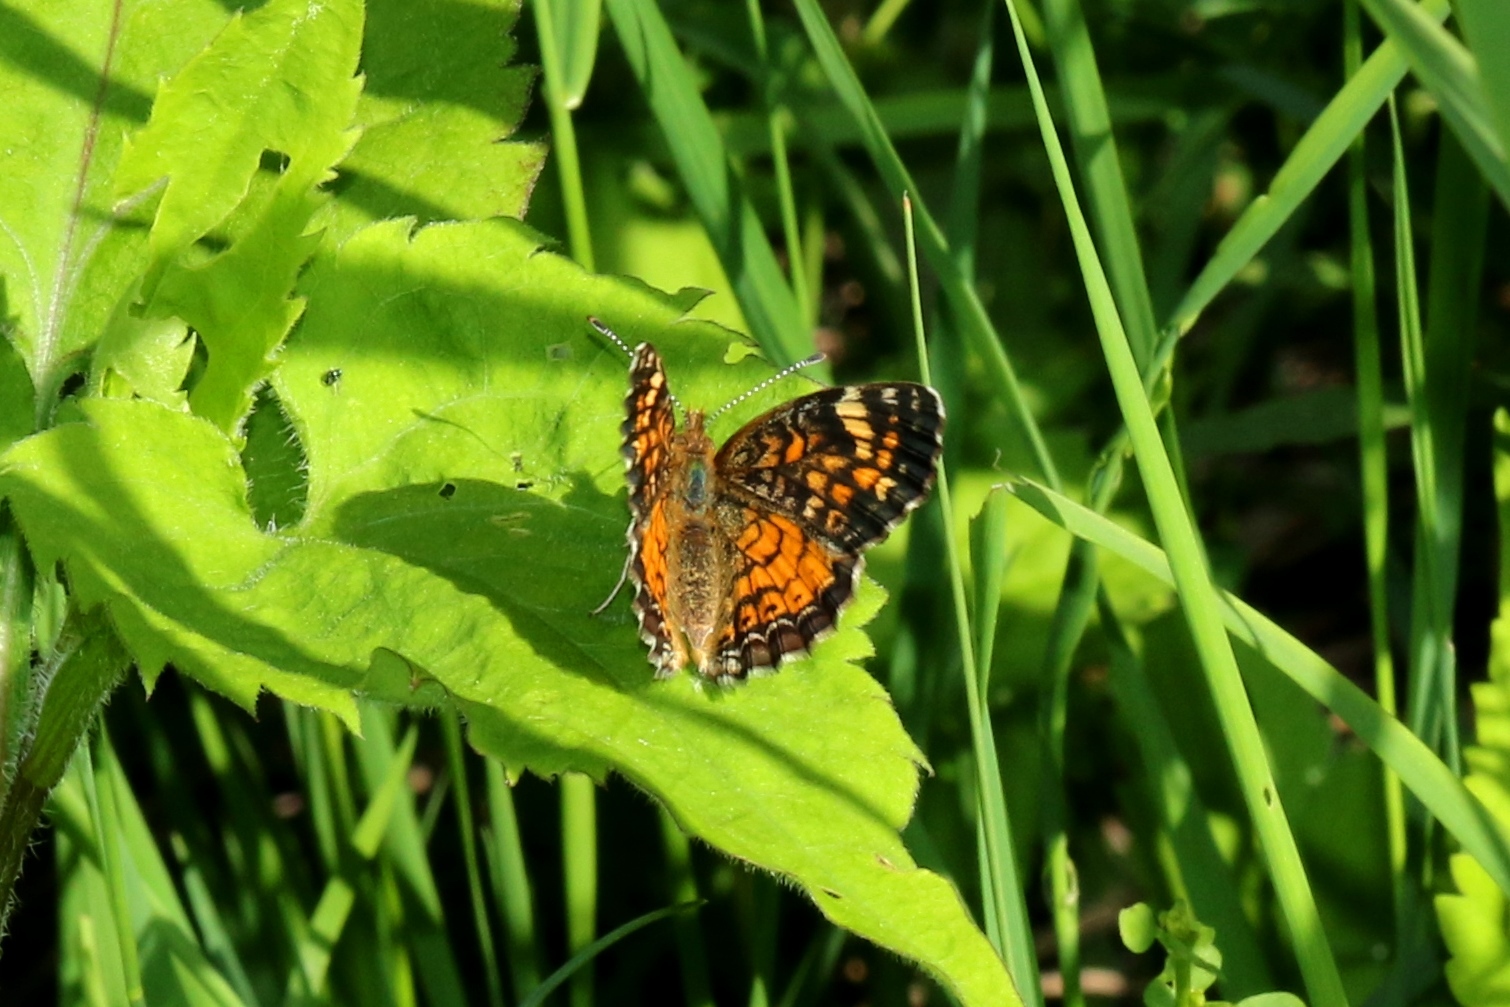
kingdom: Animalia
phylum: Arthropoda
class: Insecta
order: Lepidoptera
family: Nymphalidae
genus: Phyciodes
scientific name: Phyciodes tharos
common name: Pearl crescent
